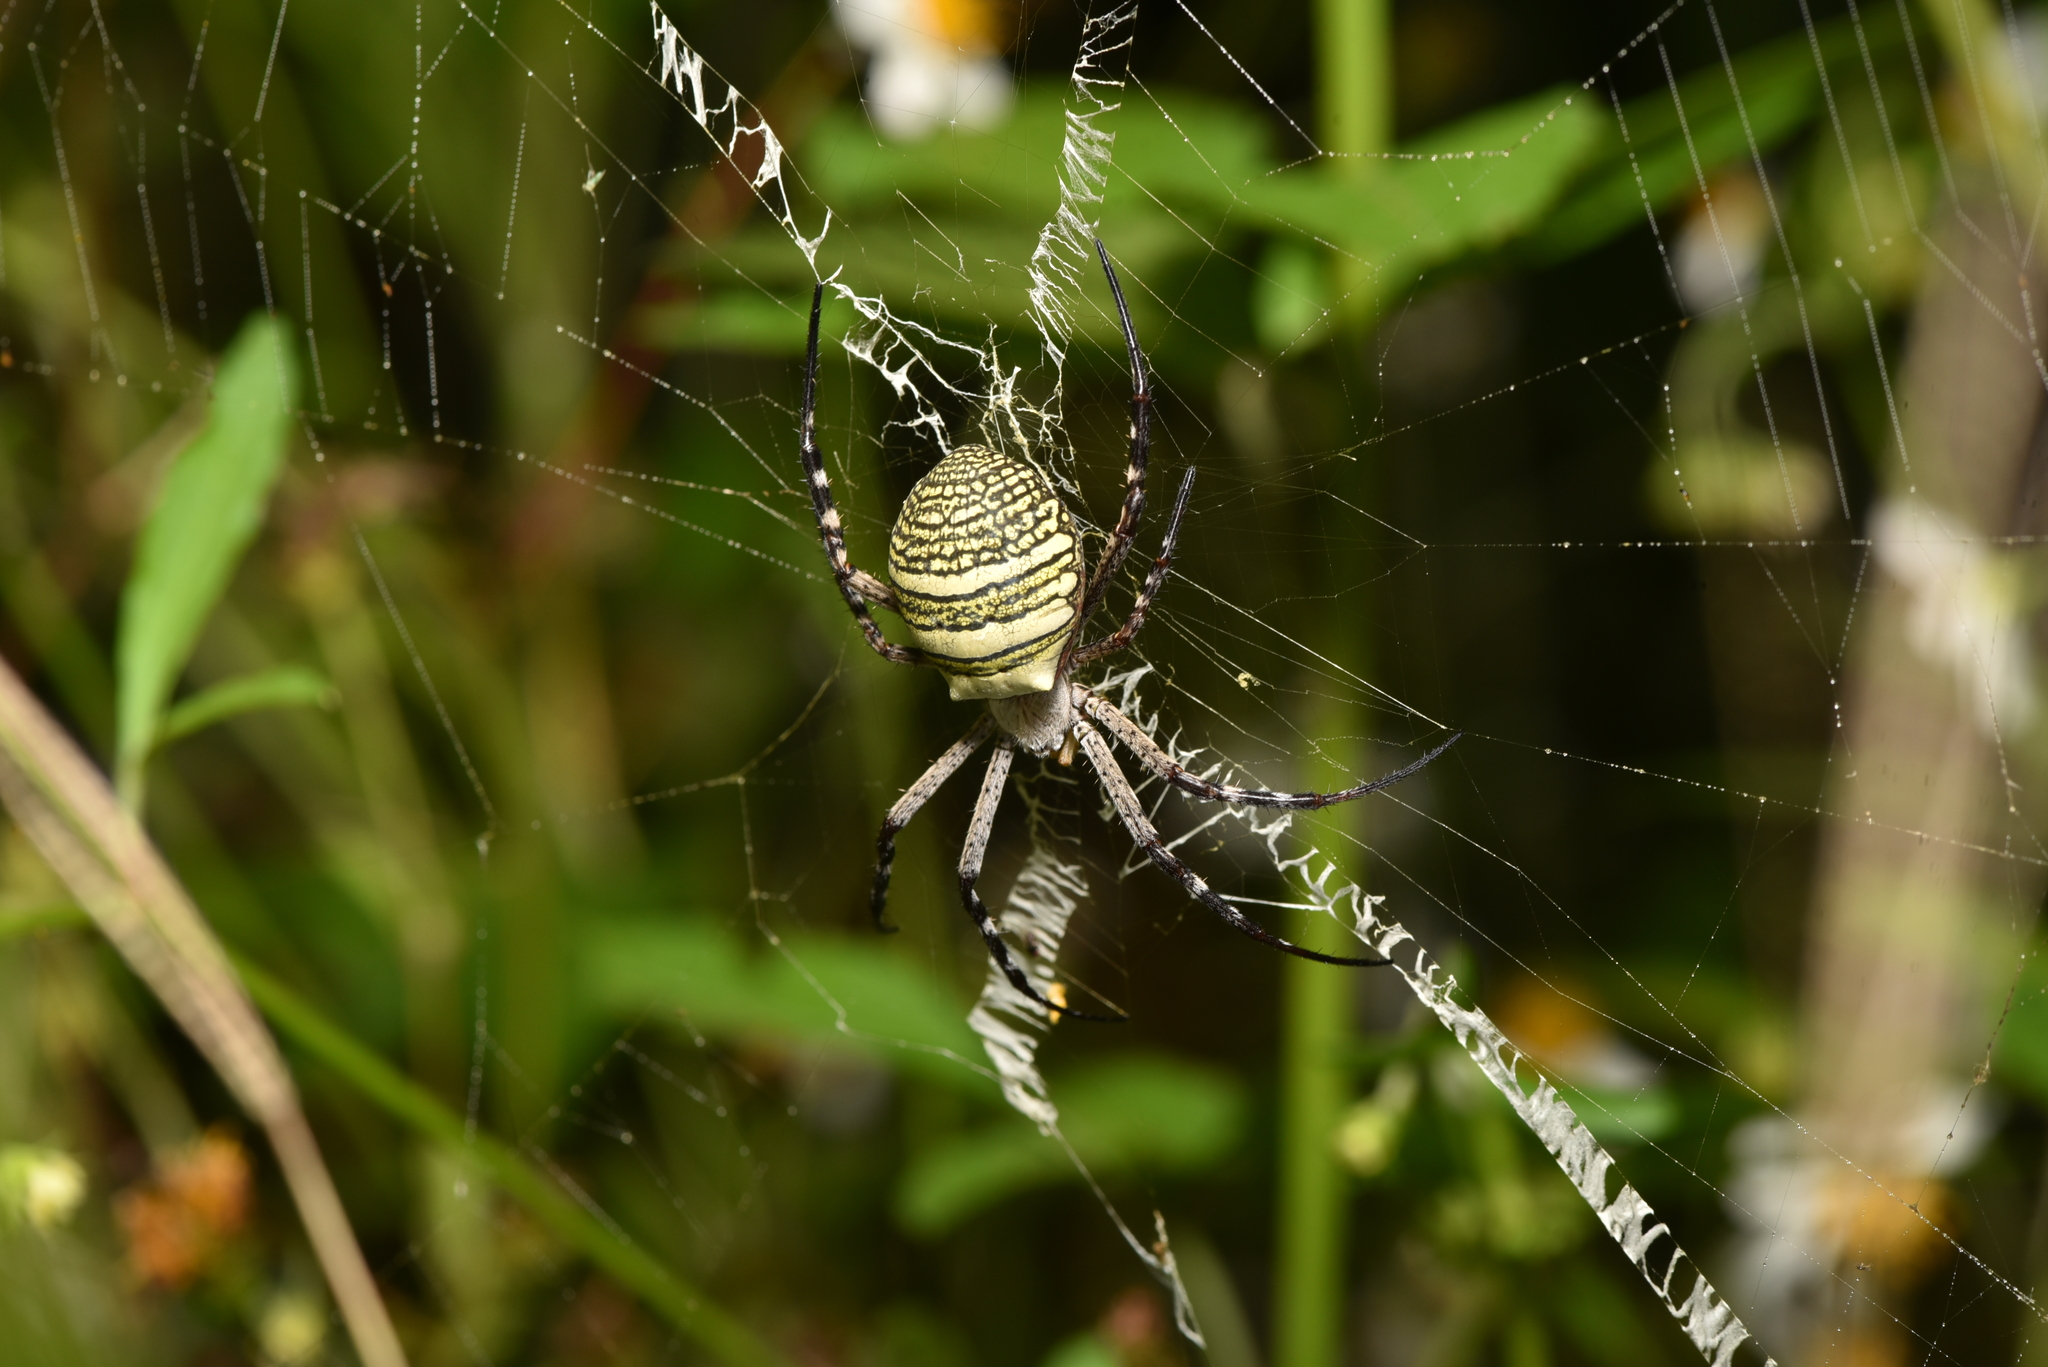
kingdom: Animalia
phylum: Arthropoda
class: Arachnida
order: Araneae
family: Araneidae
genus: Argiope
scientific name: Argiope aemula
